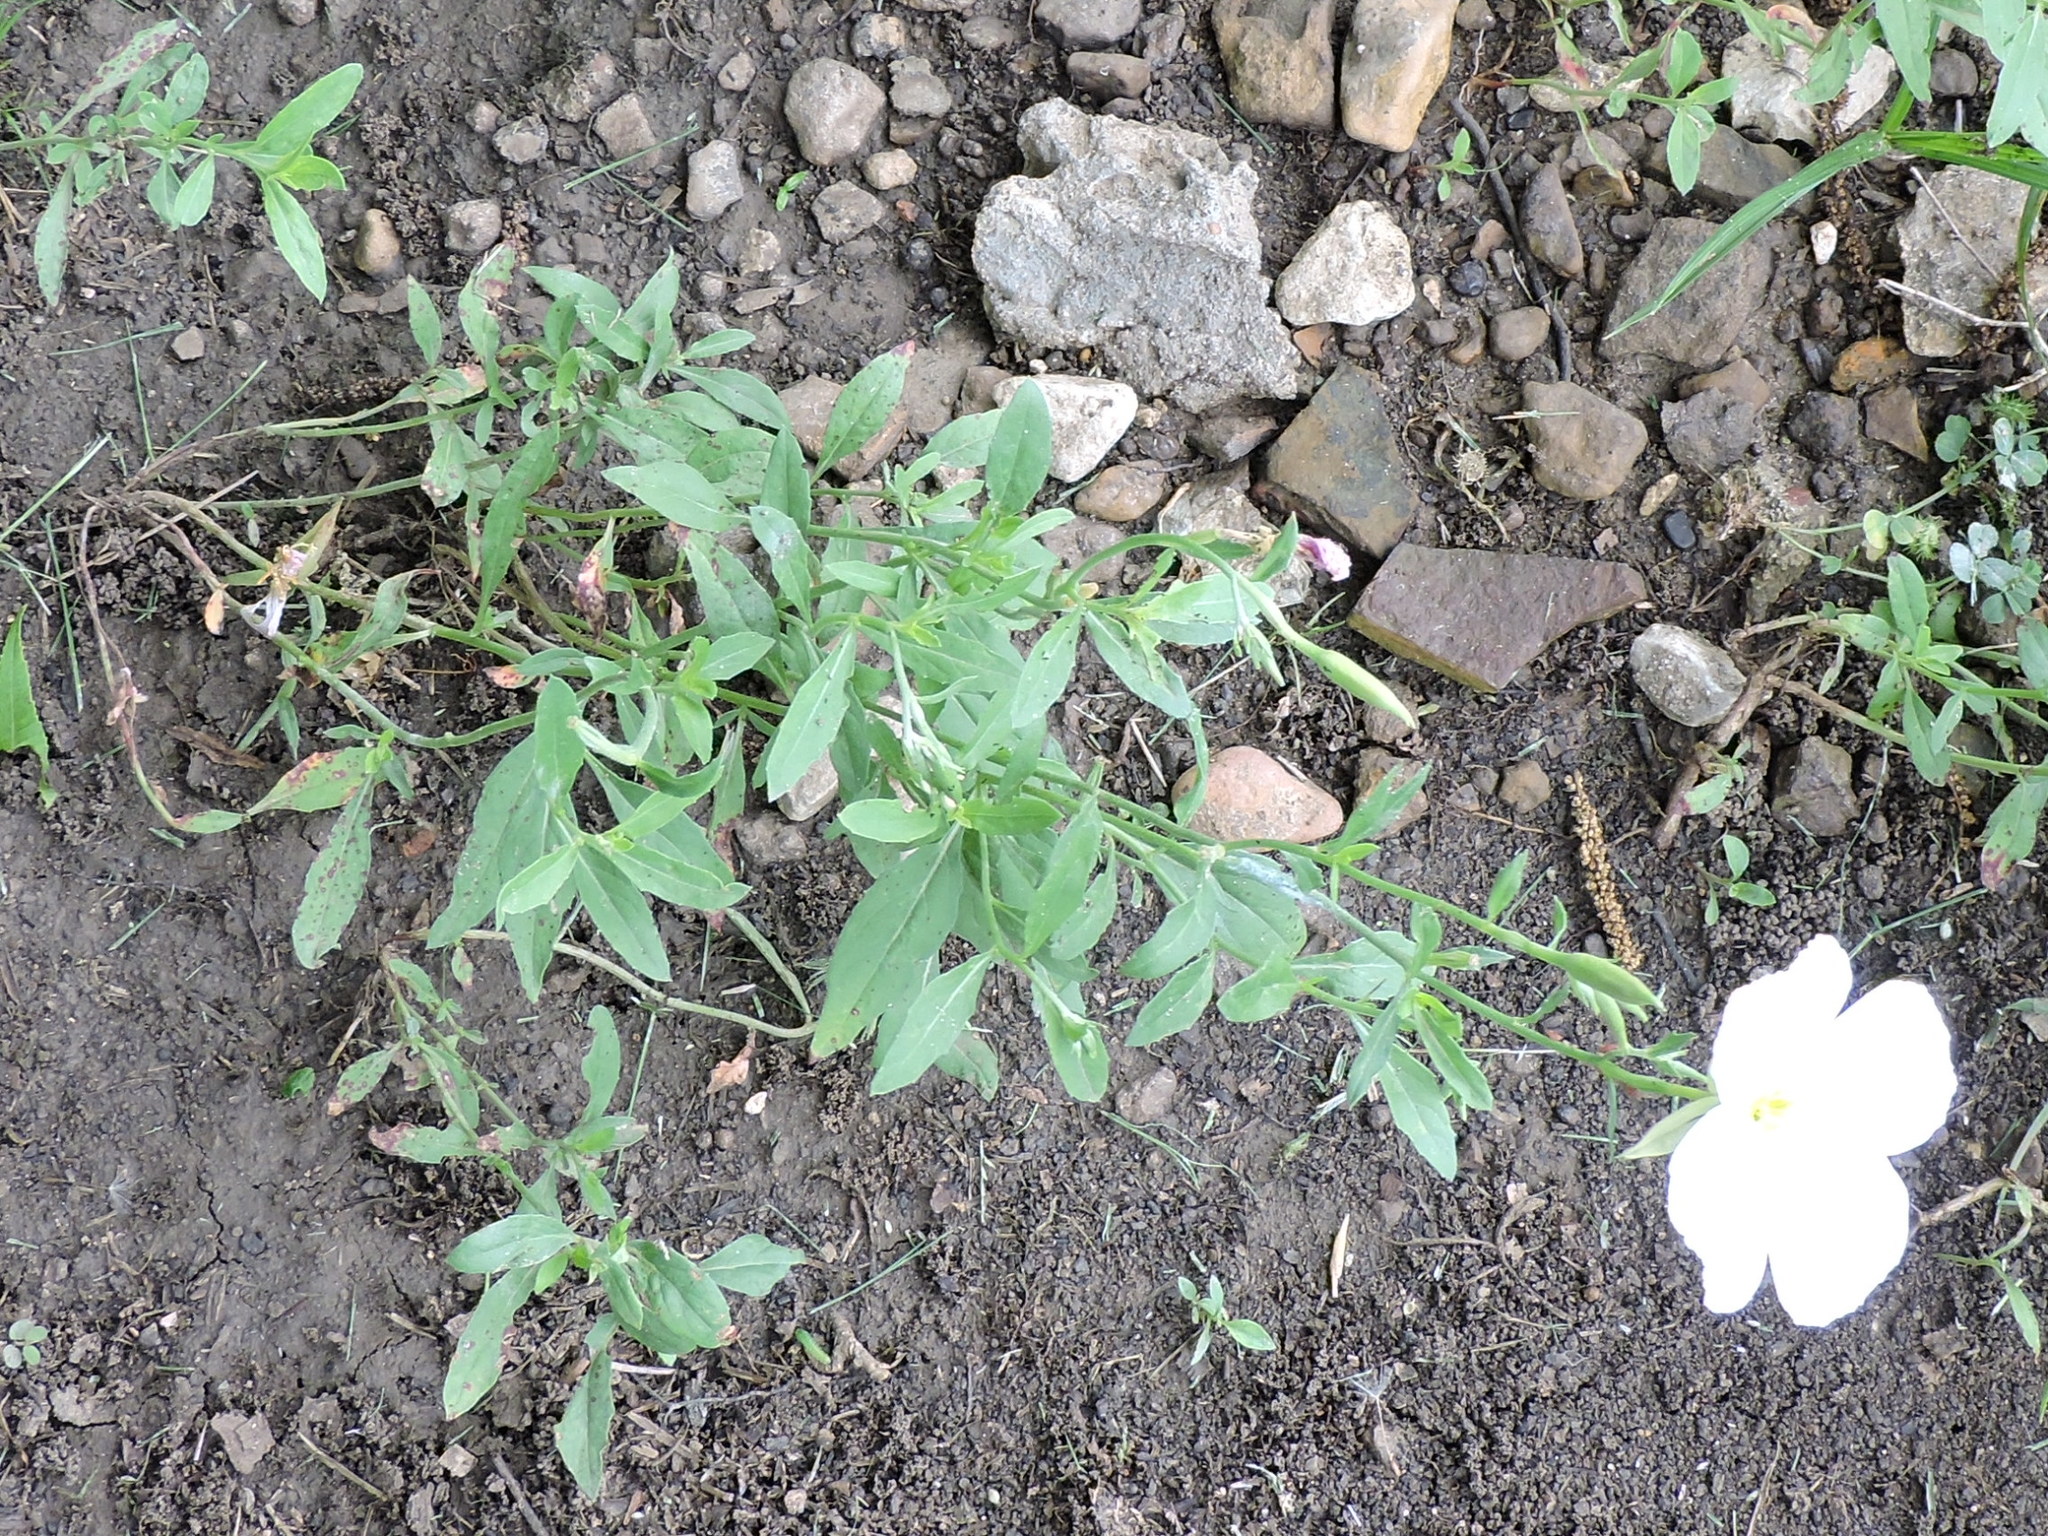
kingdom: Plantae
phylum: Tracheophyta
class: Magnoliopsida
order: Myrtales
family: Onagraceae
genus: Oenothera
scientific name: Oenothera speciosa
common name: White evening-primrose
